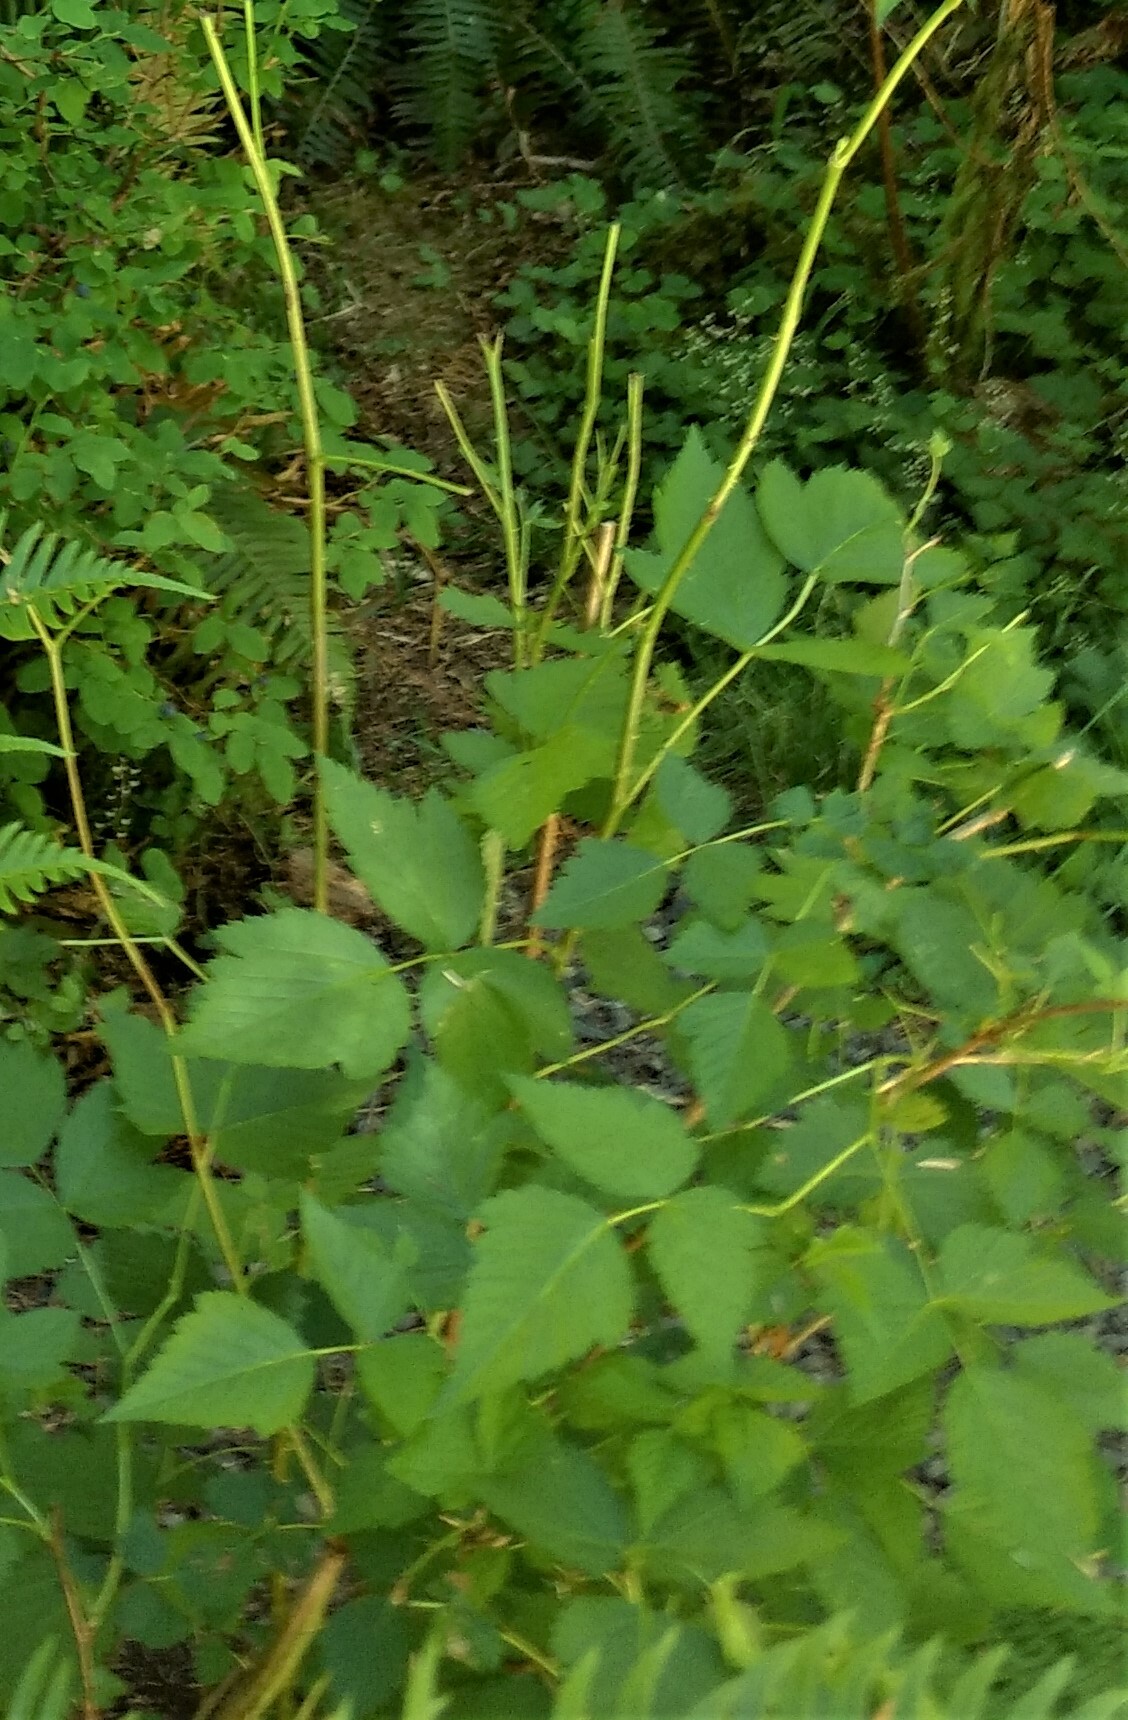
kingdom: Plantae
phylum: Tracheophyta
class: Magnoliopsida
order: Rosales
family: Rosaceae
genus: Rubus
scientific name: Rubus spectabilis
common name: Salmonberry
